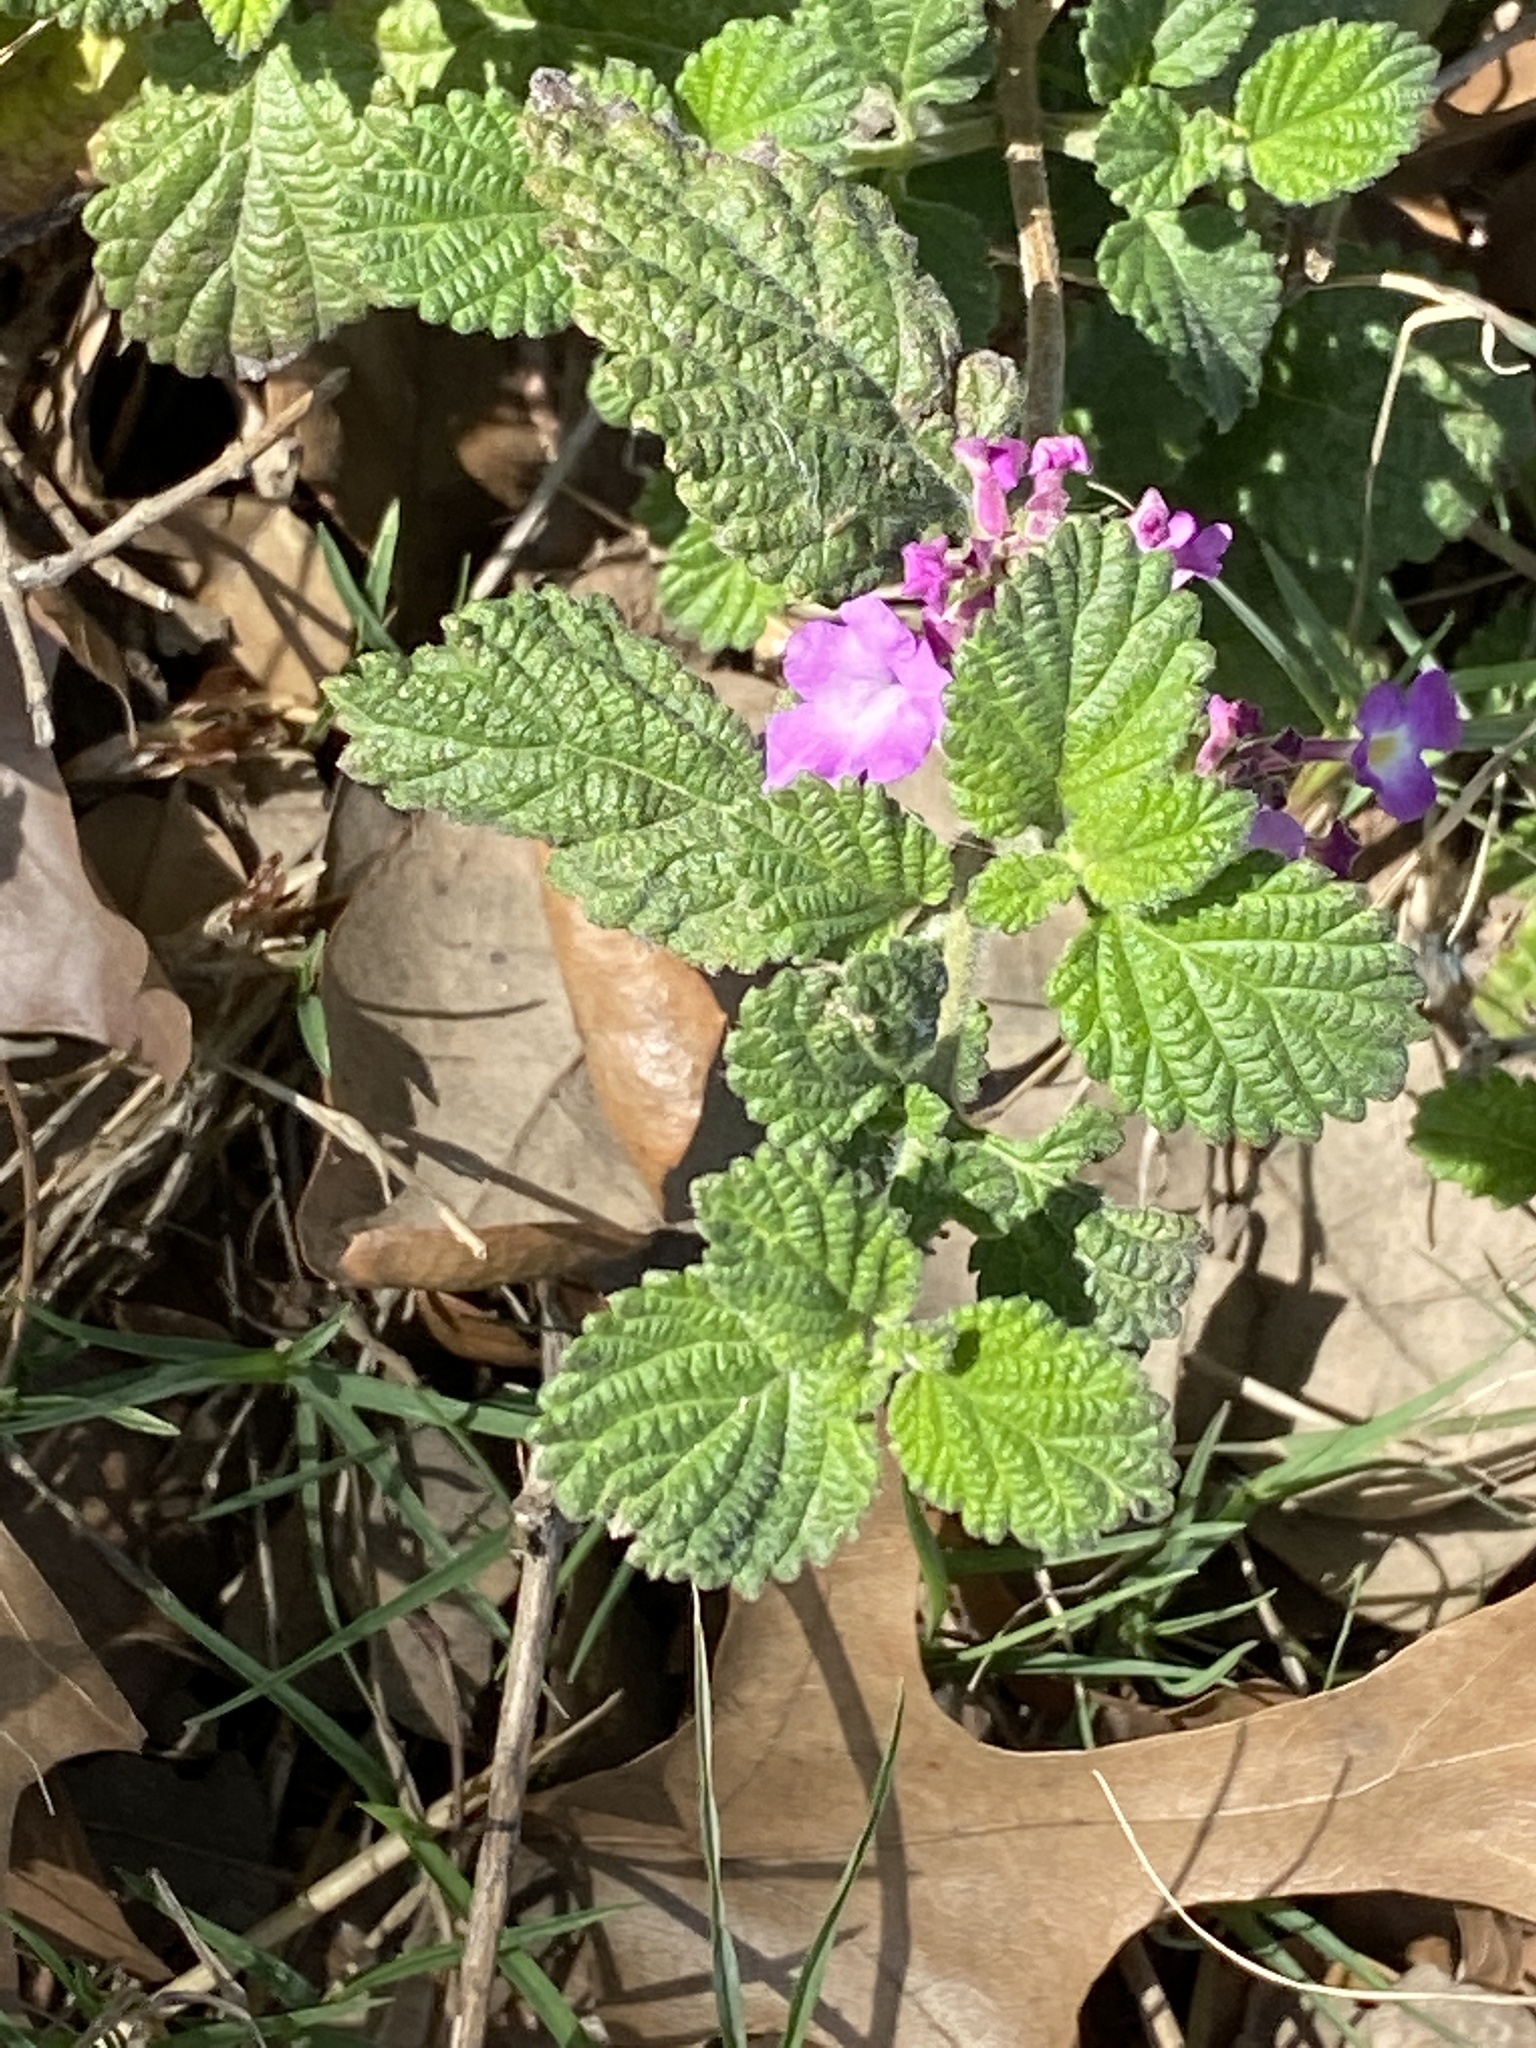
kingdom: Plantae
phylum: Tracheophyta
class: Magnoliopsida
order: Lamiales
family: Verbenaceae
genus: Lantana
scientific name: Lantana montevidensis
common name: Trailing shrubverbena
